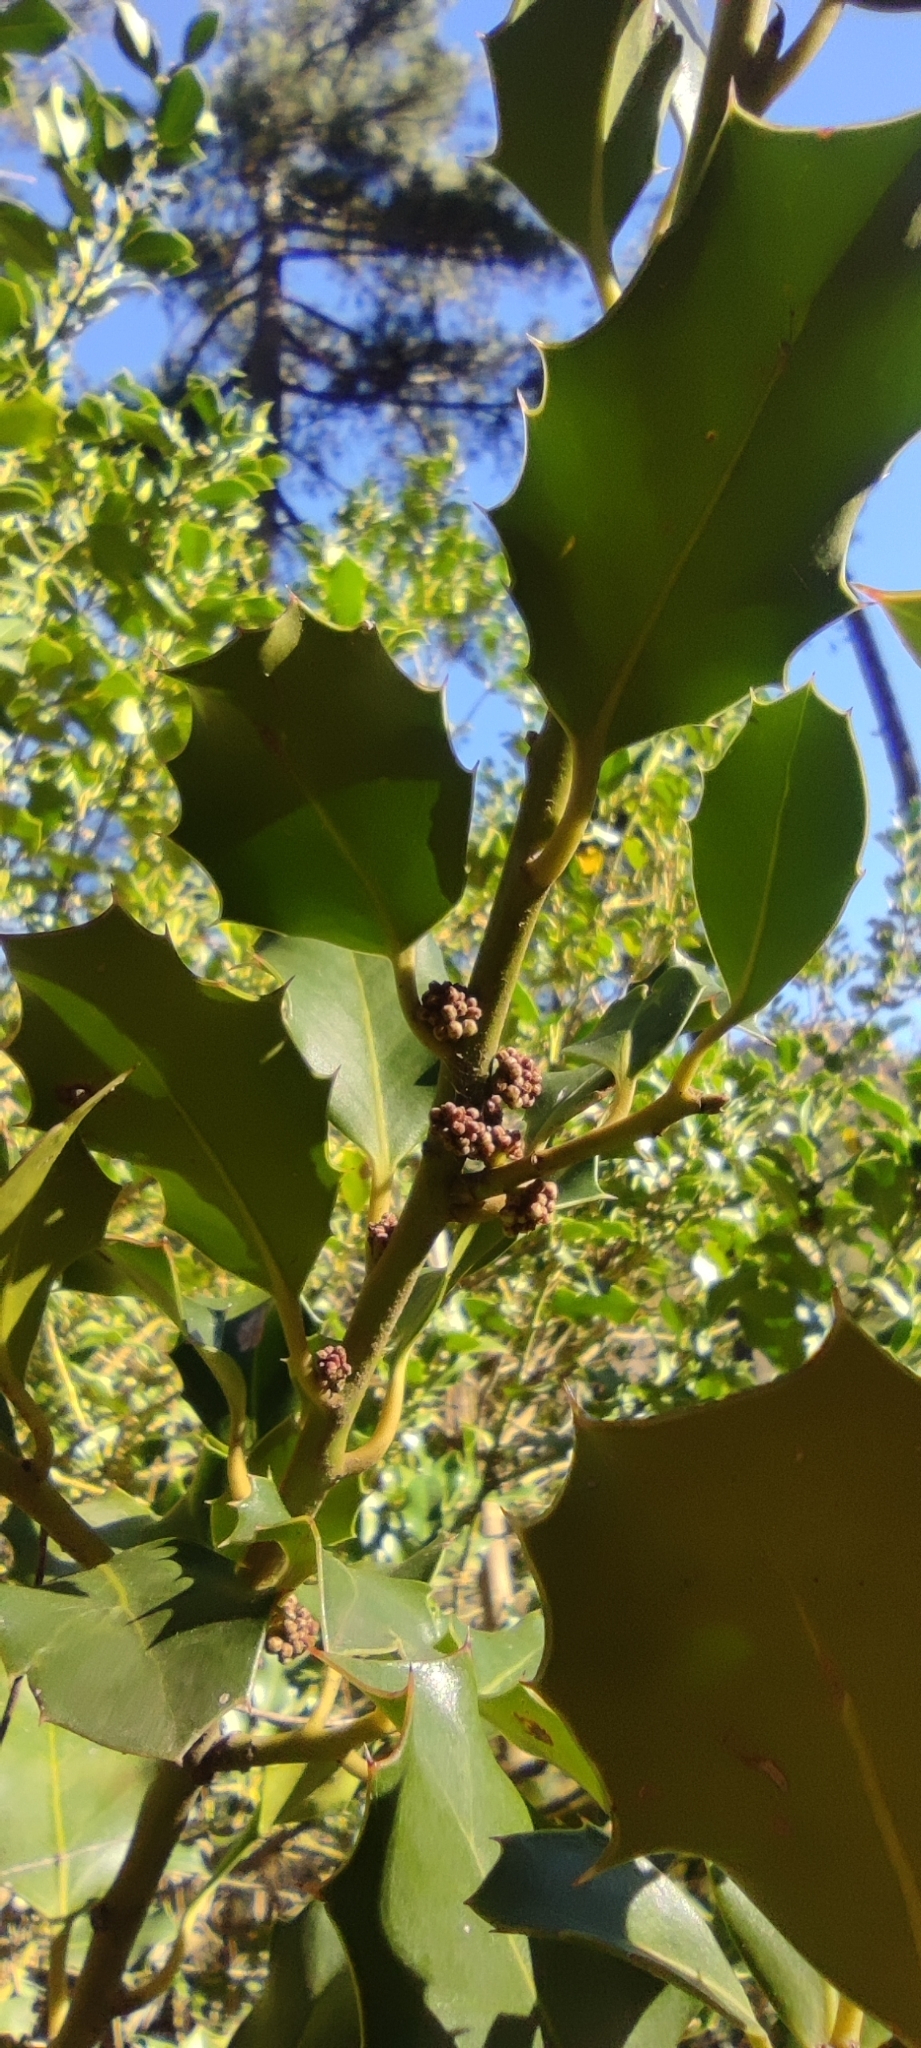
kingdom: Plantae
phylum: Tracheophyta
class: Magnoliopsida
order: Aquifoliales
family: Aquifoliaceae
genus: Ilex
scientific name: Ilex aquifolium
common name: English holly
